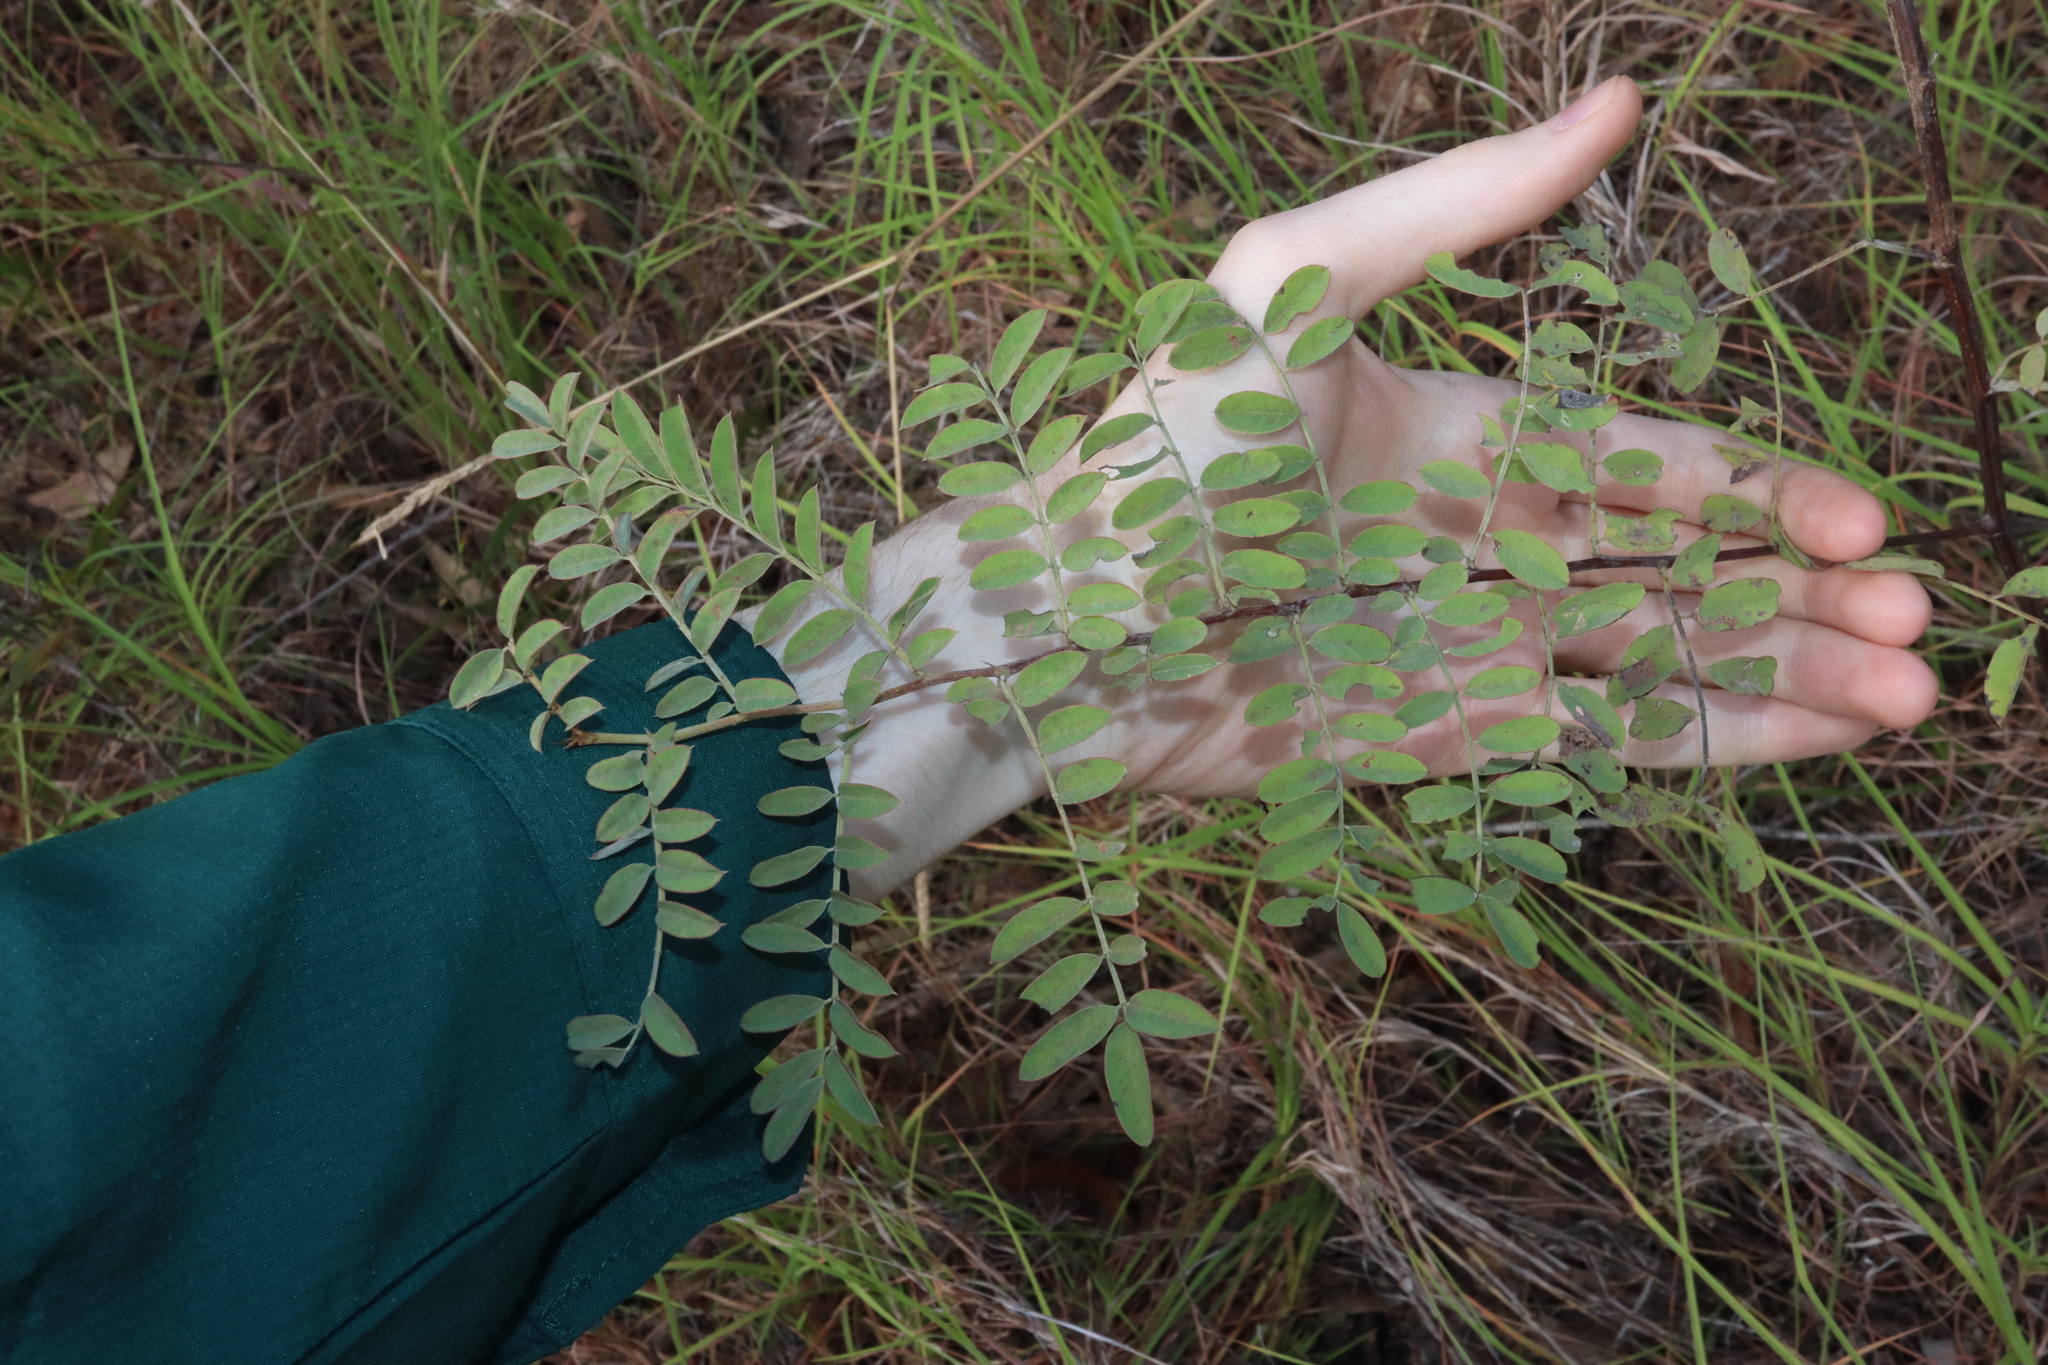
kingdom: Plantae
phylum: Tracheophyta
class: Magnoliopsida
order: Fabales
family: Fabaceae
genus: Indigofera
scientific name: Indigofera pratensis
